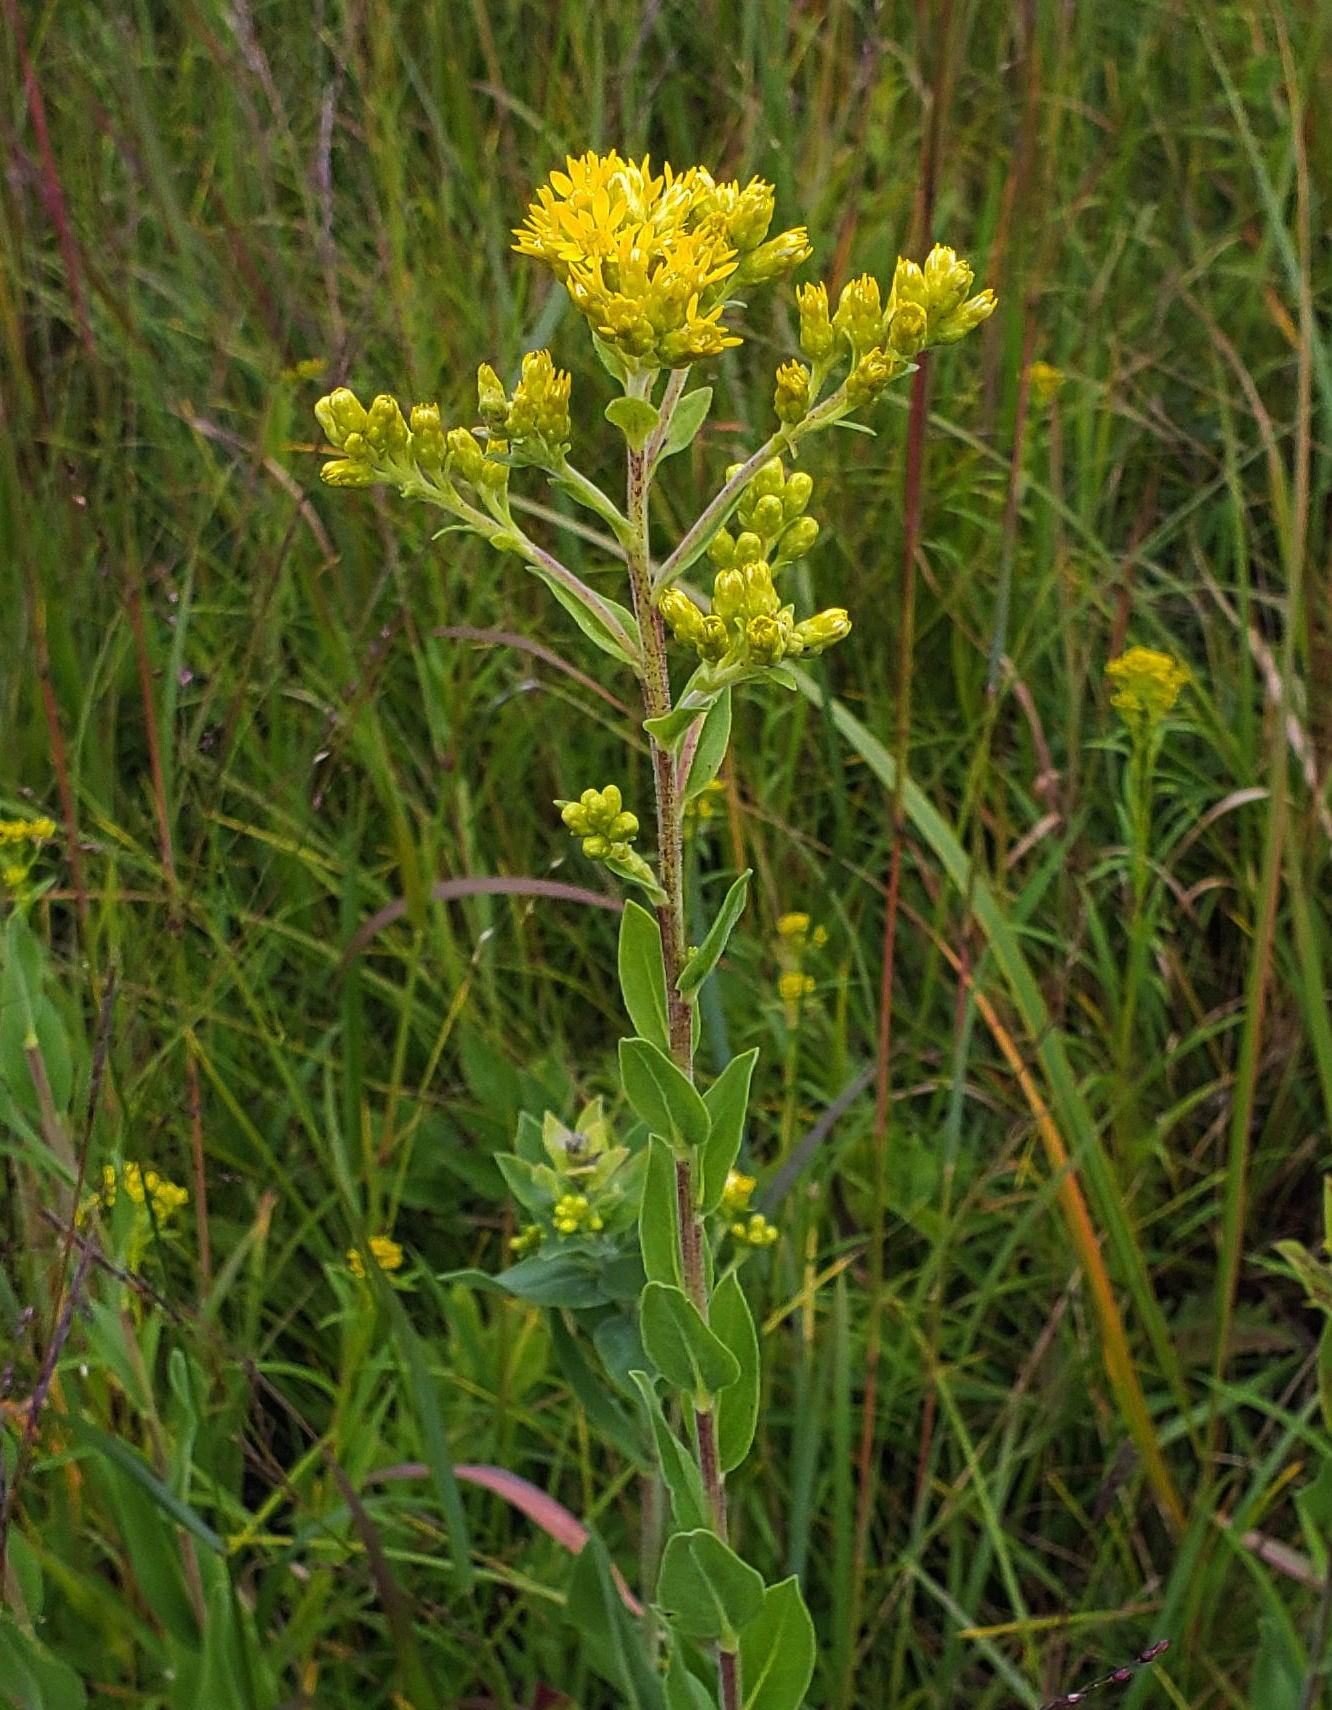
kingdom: Plantae
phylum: Tracheophyta
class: Magnoliopsida
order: Asterales
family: Asteraceae
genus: Solidago
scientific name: Solidago rigida
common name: Rigid goldenrod
